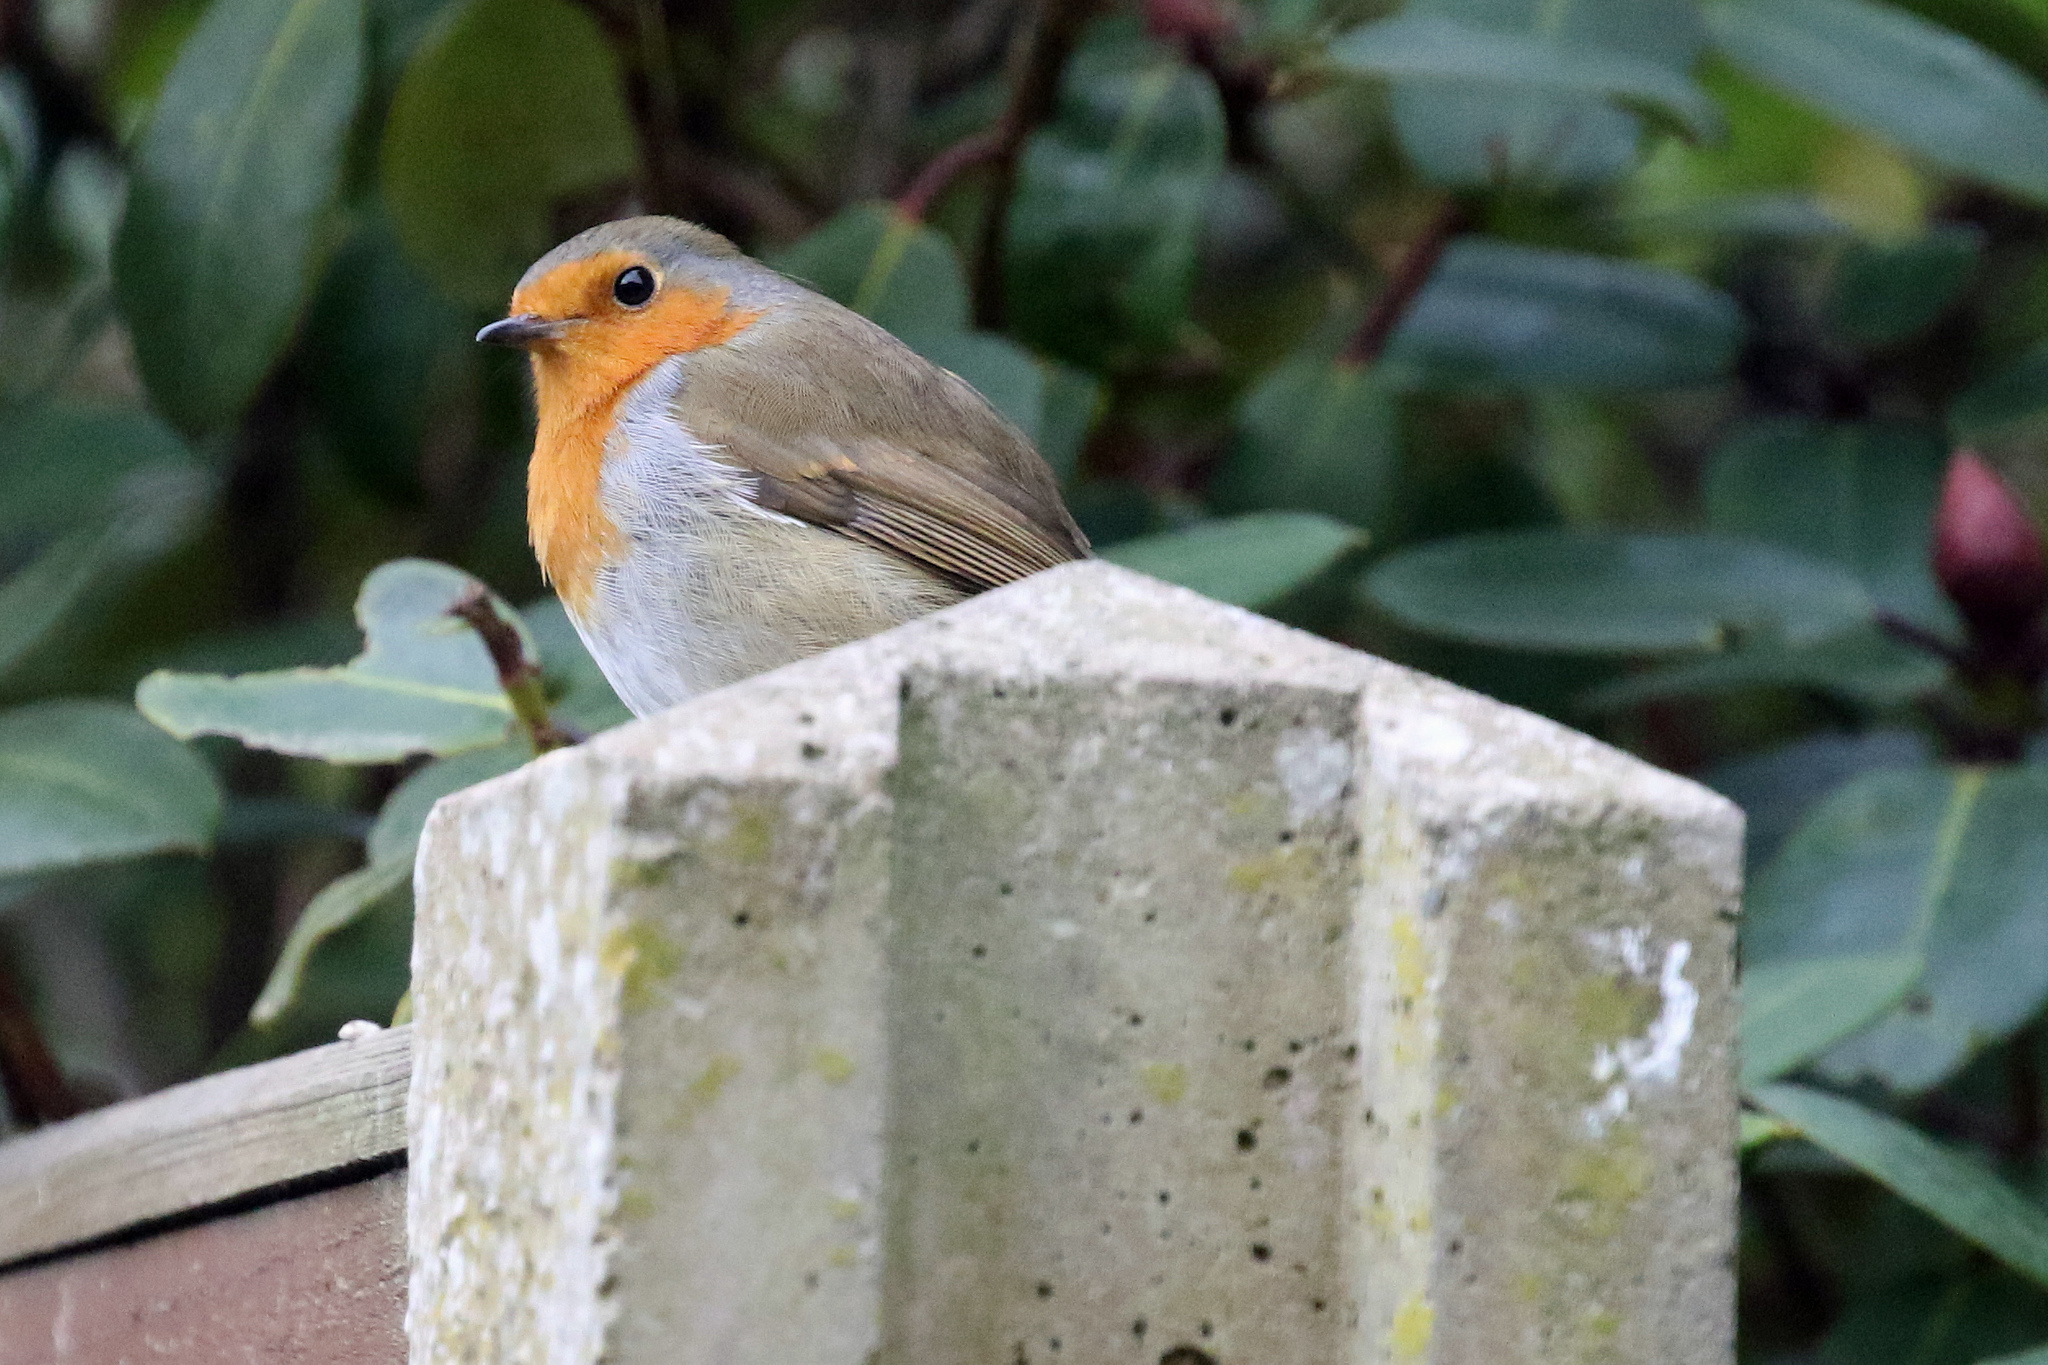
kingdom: Animalia
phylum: Chordata
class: Aves
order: Passeriformes
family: Muscicapidae
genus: Erithacus
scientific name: Erithacus rubecula
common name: European robin
